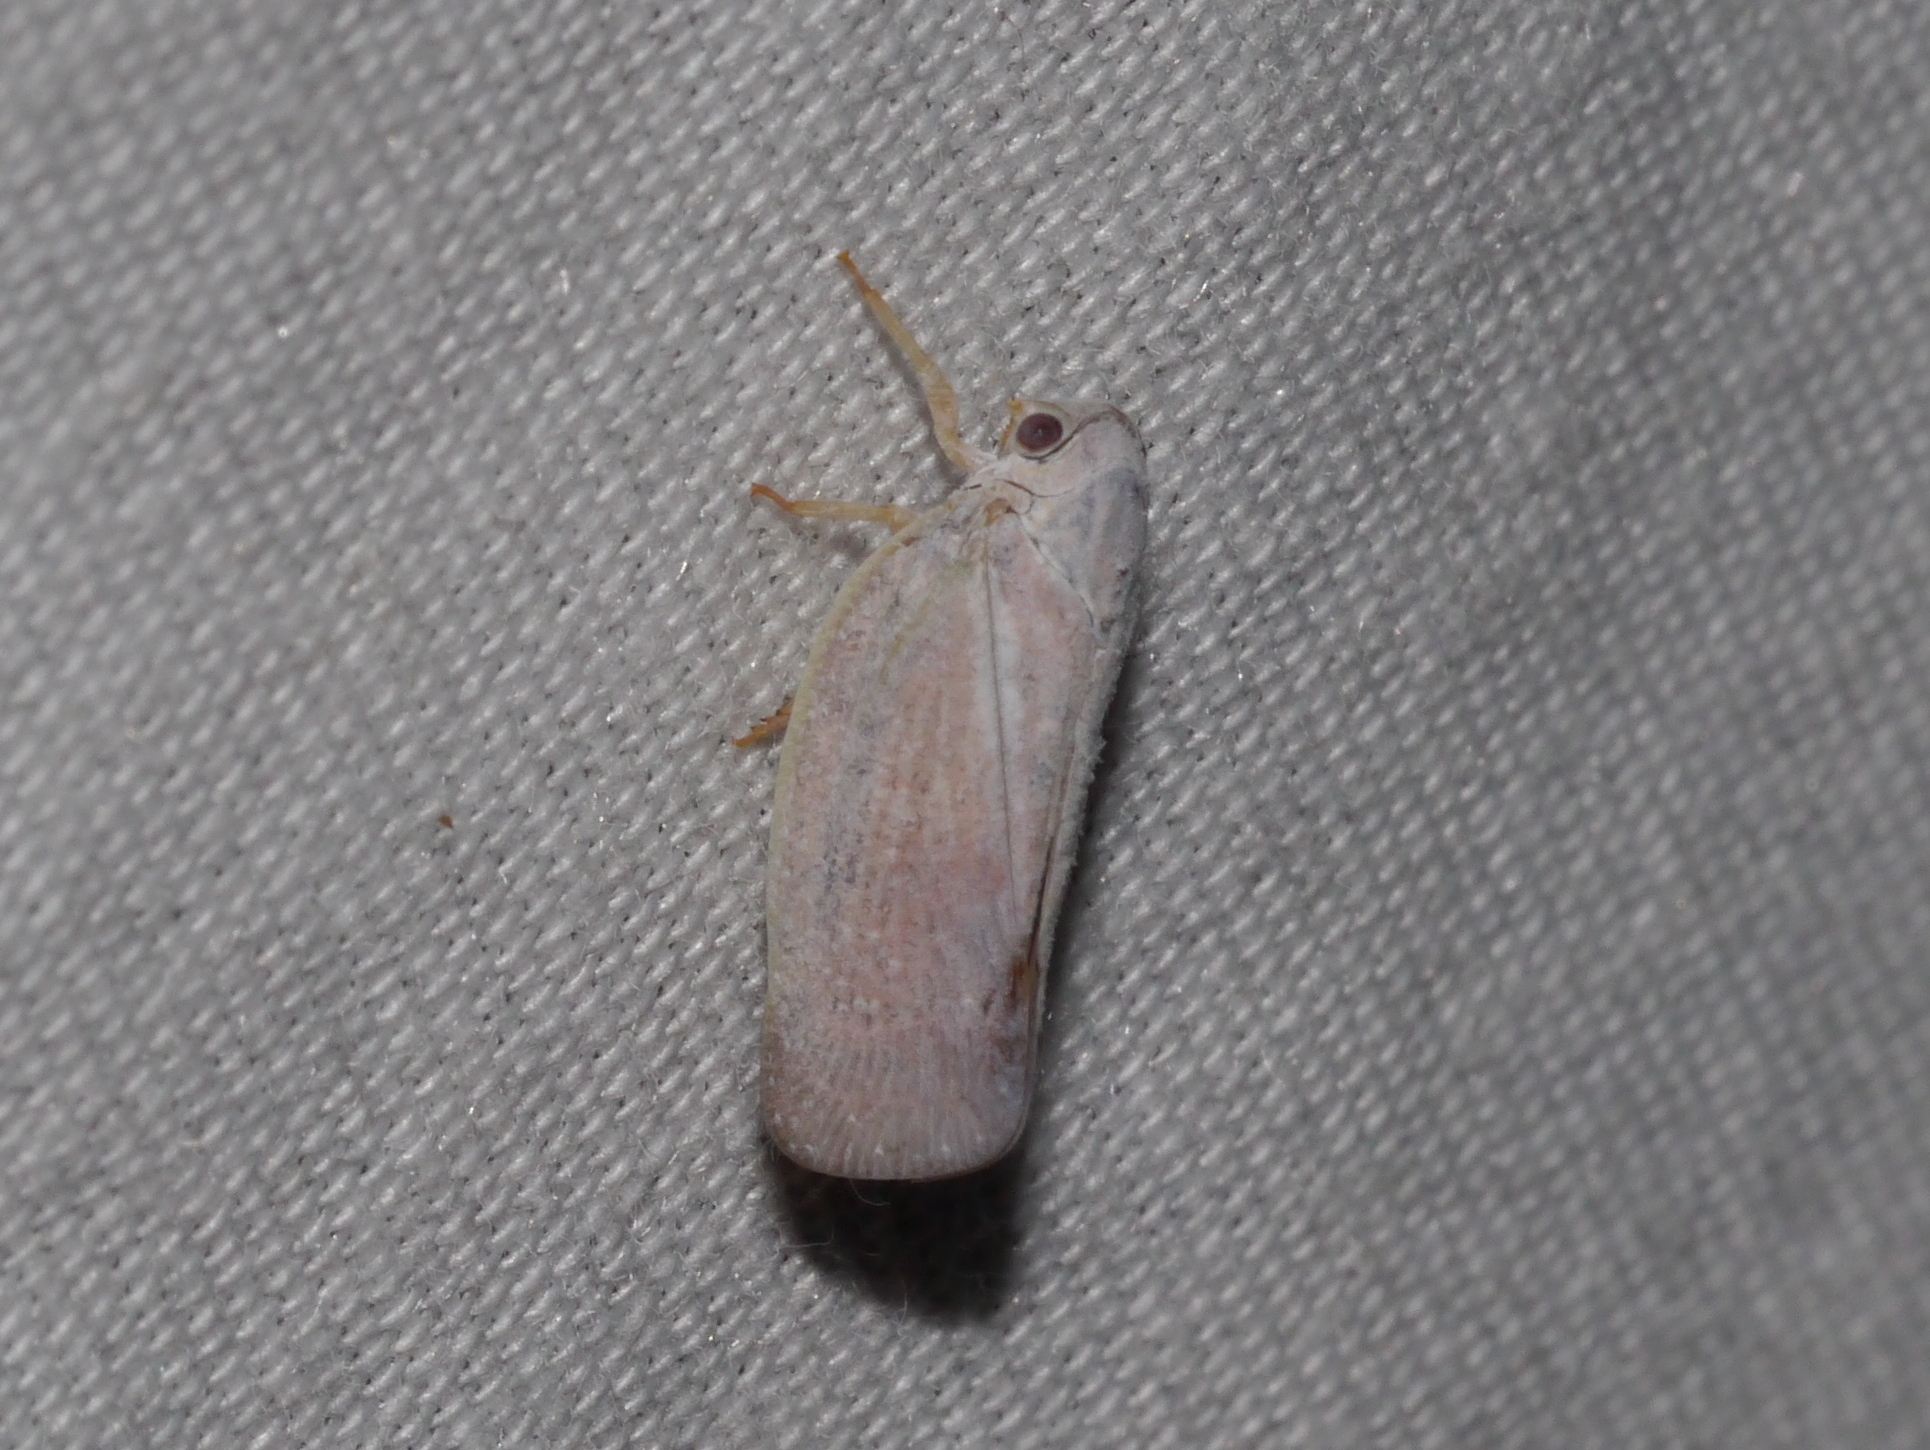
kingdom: Animalia
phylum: Arthropoda
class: Insecta
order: Hemiptera
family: Flatidae
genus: Flatormenis
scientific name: Flatormenis saucia
